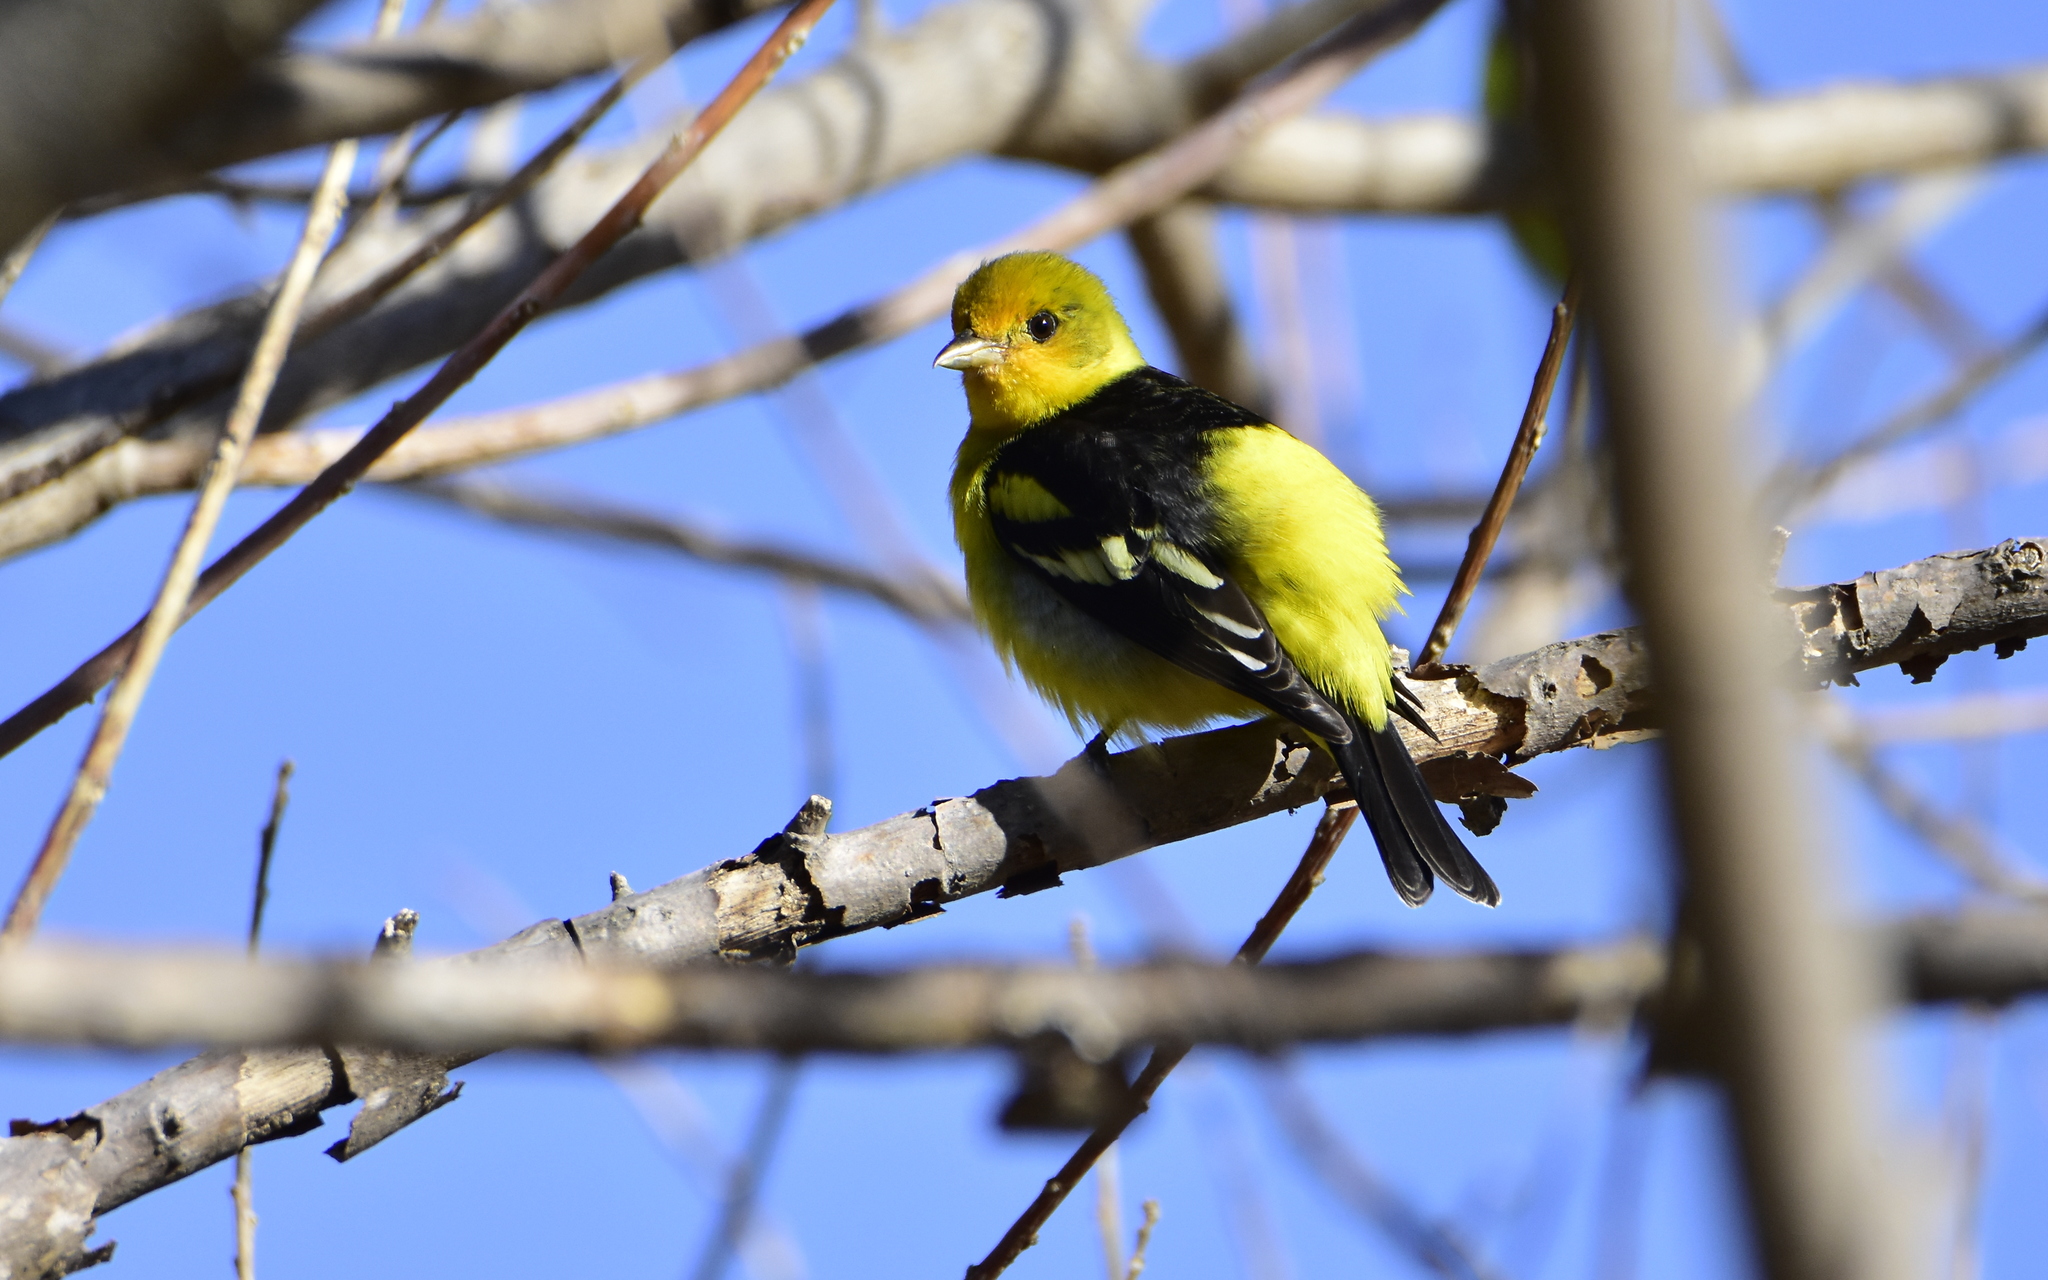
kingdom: Animalia
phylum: Chordata
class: Aves
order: Passeriformes
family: Cardinalidae
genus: Piranga
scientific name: Piranga ludoviciana
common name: Western tanager
